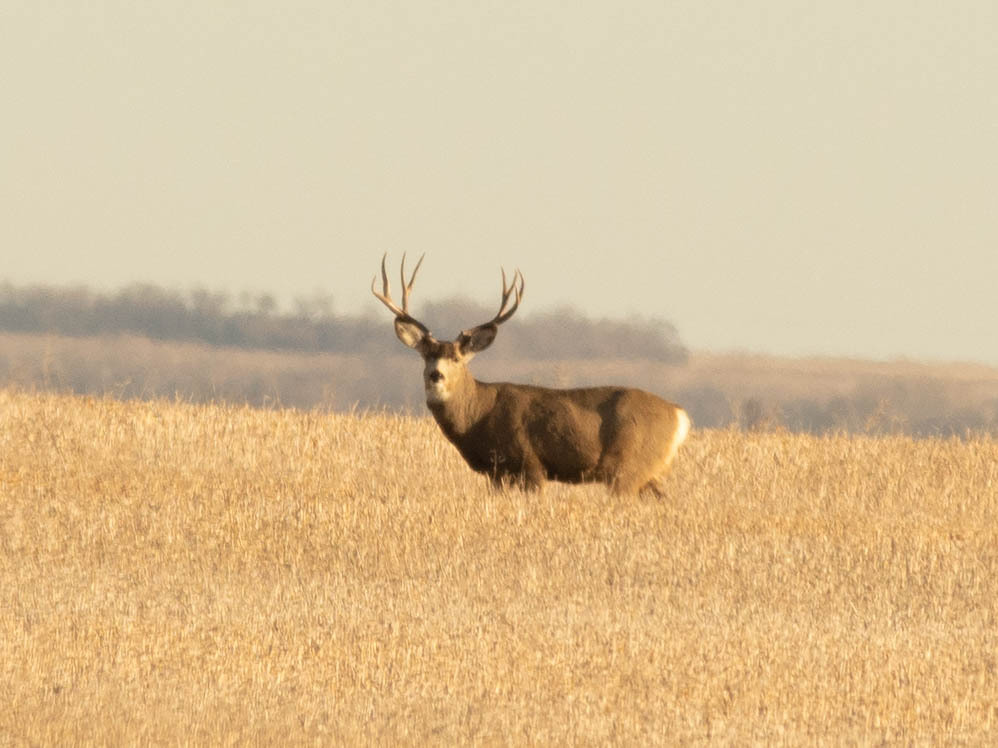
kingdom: Animalia
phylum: Chordata
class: Mammalia
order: Artiodactyla
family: Cervidae
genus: Odocoileus
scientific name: Odocoileus hemionus
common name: Mule deer
